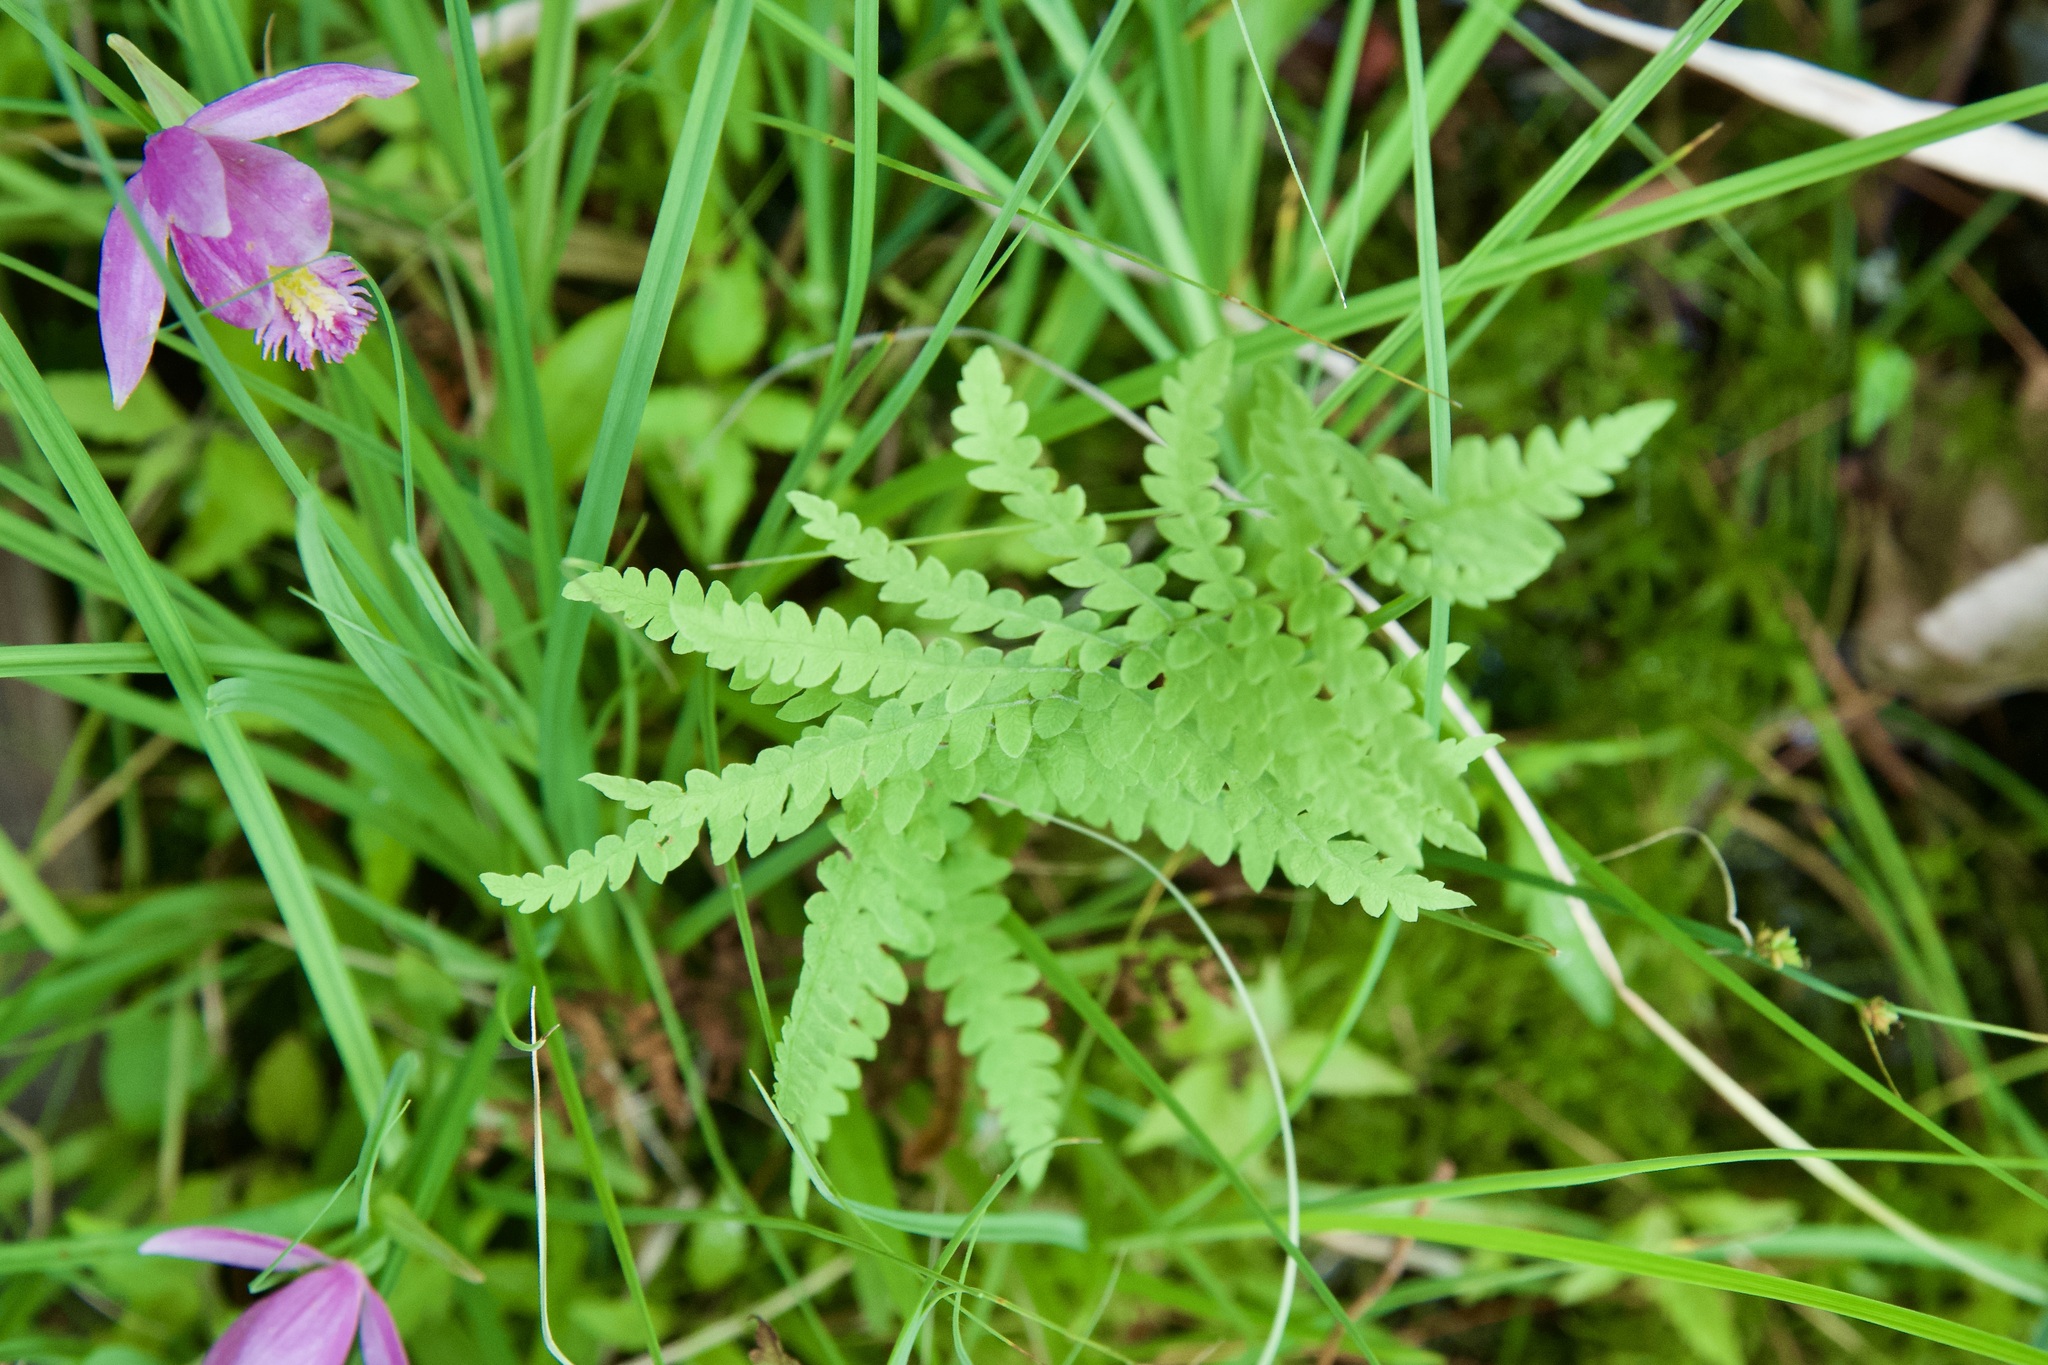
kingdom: Plantae
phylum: Tracheophyta
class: Polypodiopsida
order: Polypodiales
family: Thelypteridaceae
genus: Thelypteris
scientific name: Thelypteris palustris
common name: Marsh fern
